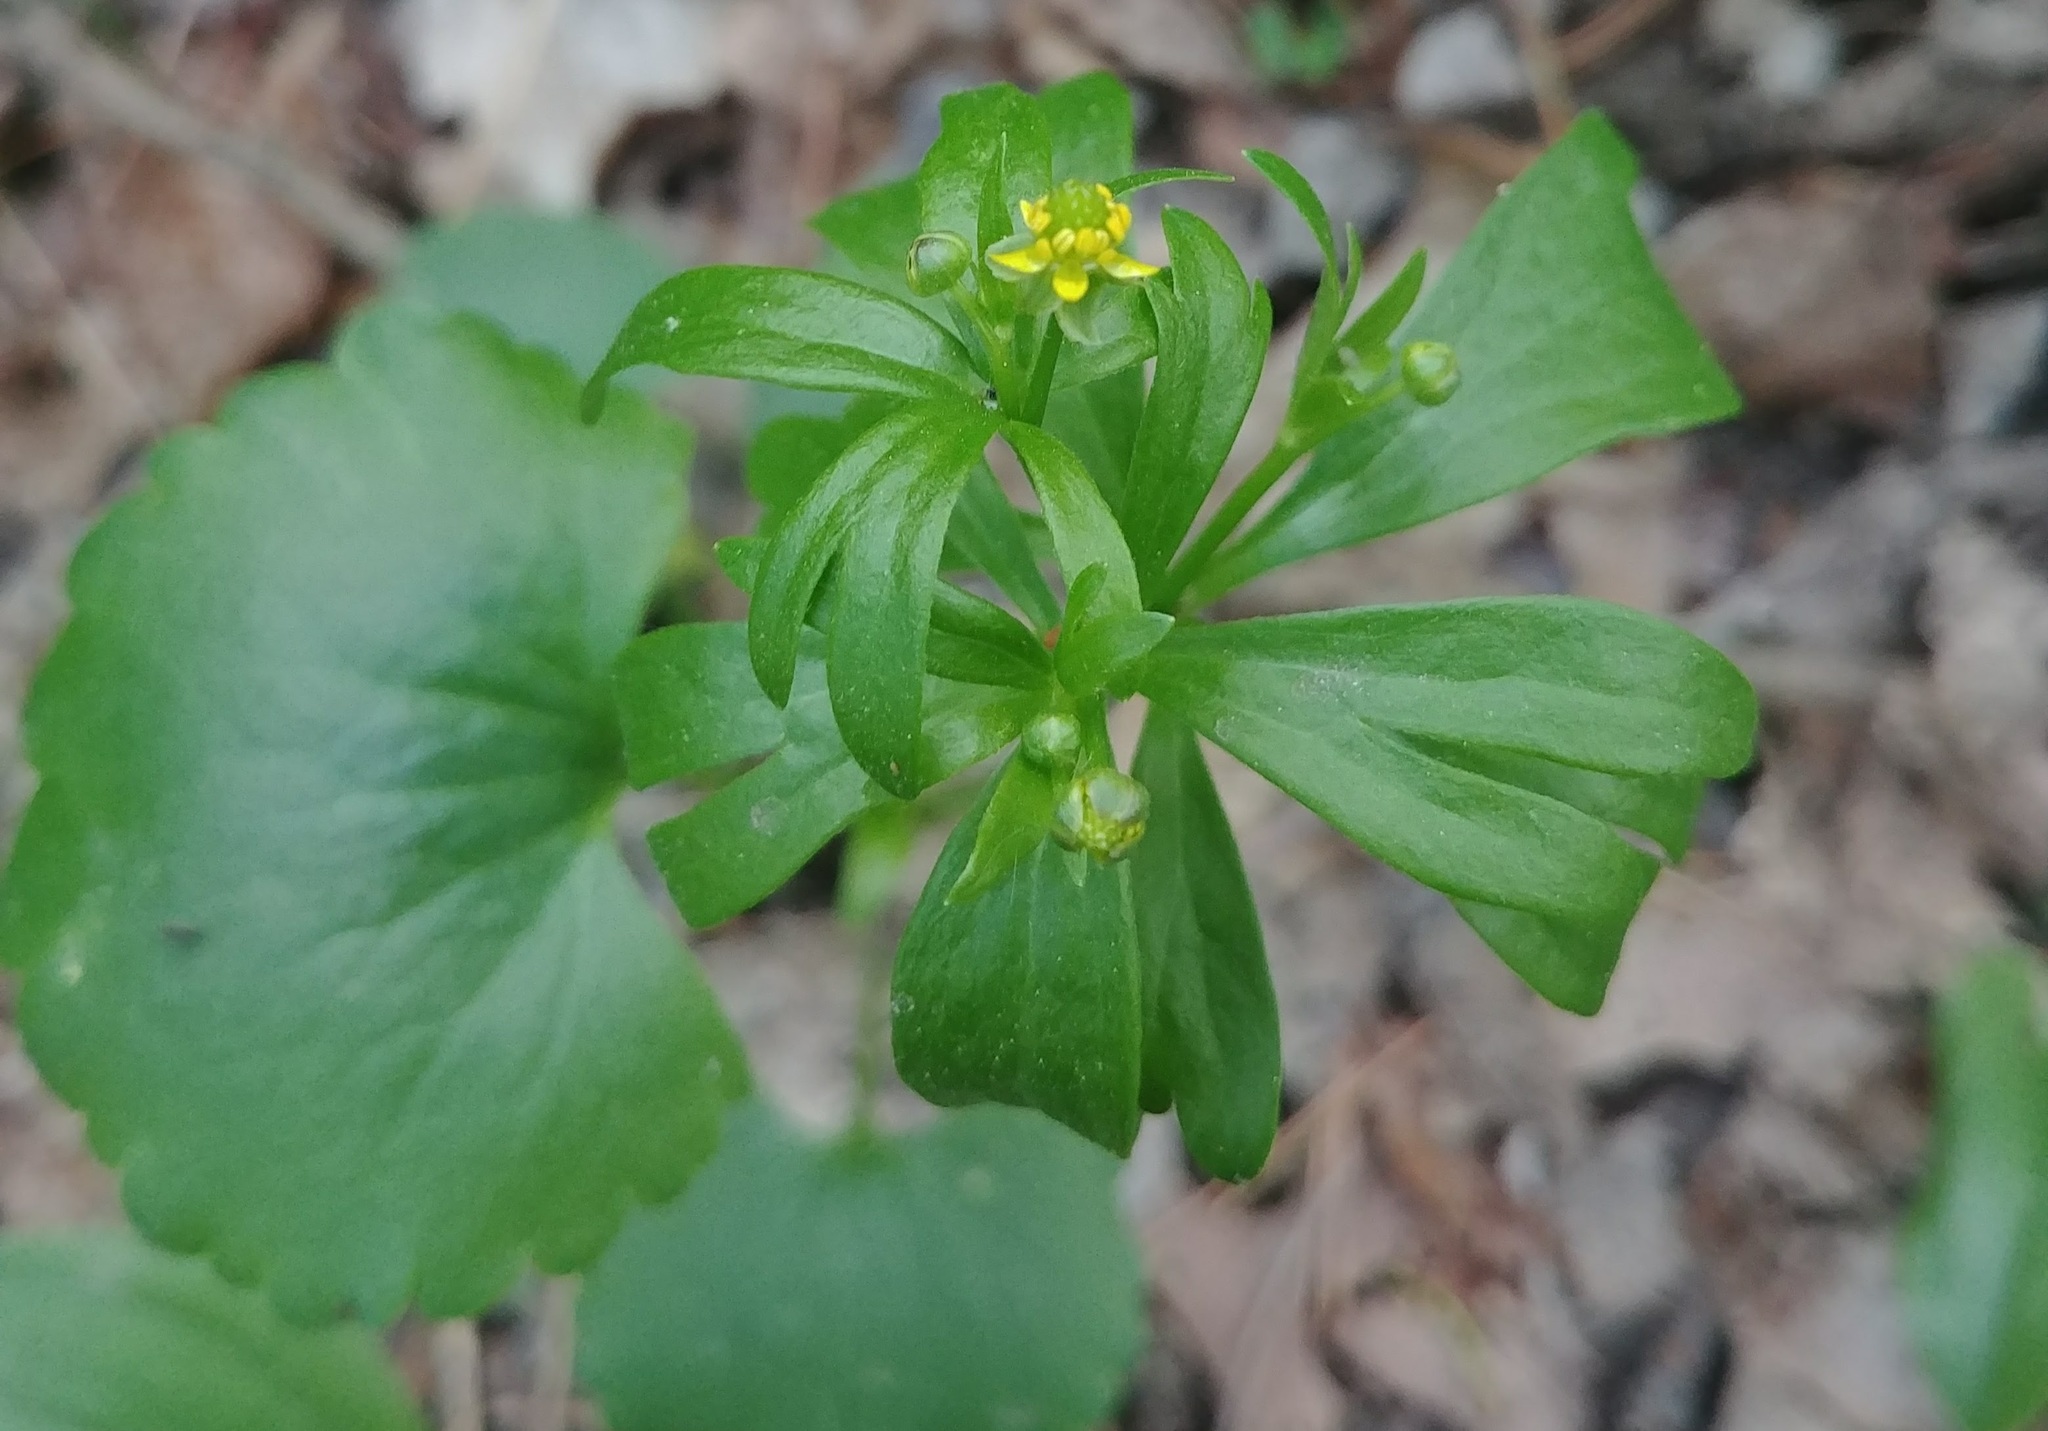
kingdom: Plantae
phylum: Tracheophyta
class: Magnoliopsida
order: Ranunculales
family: Ranunculaceae
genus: Ranunculus
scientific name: Ranunculus abortivus
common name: Early wood buttercup
